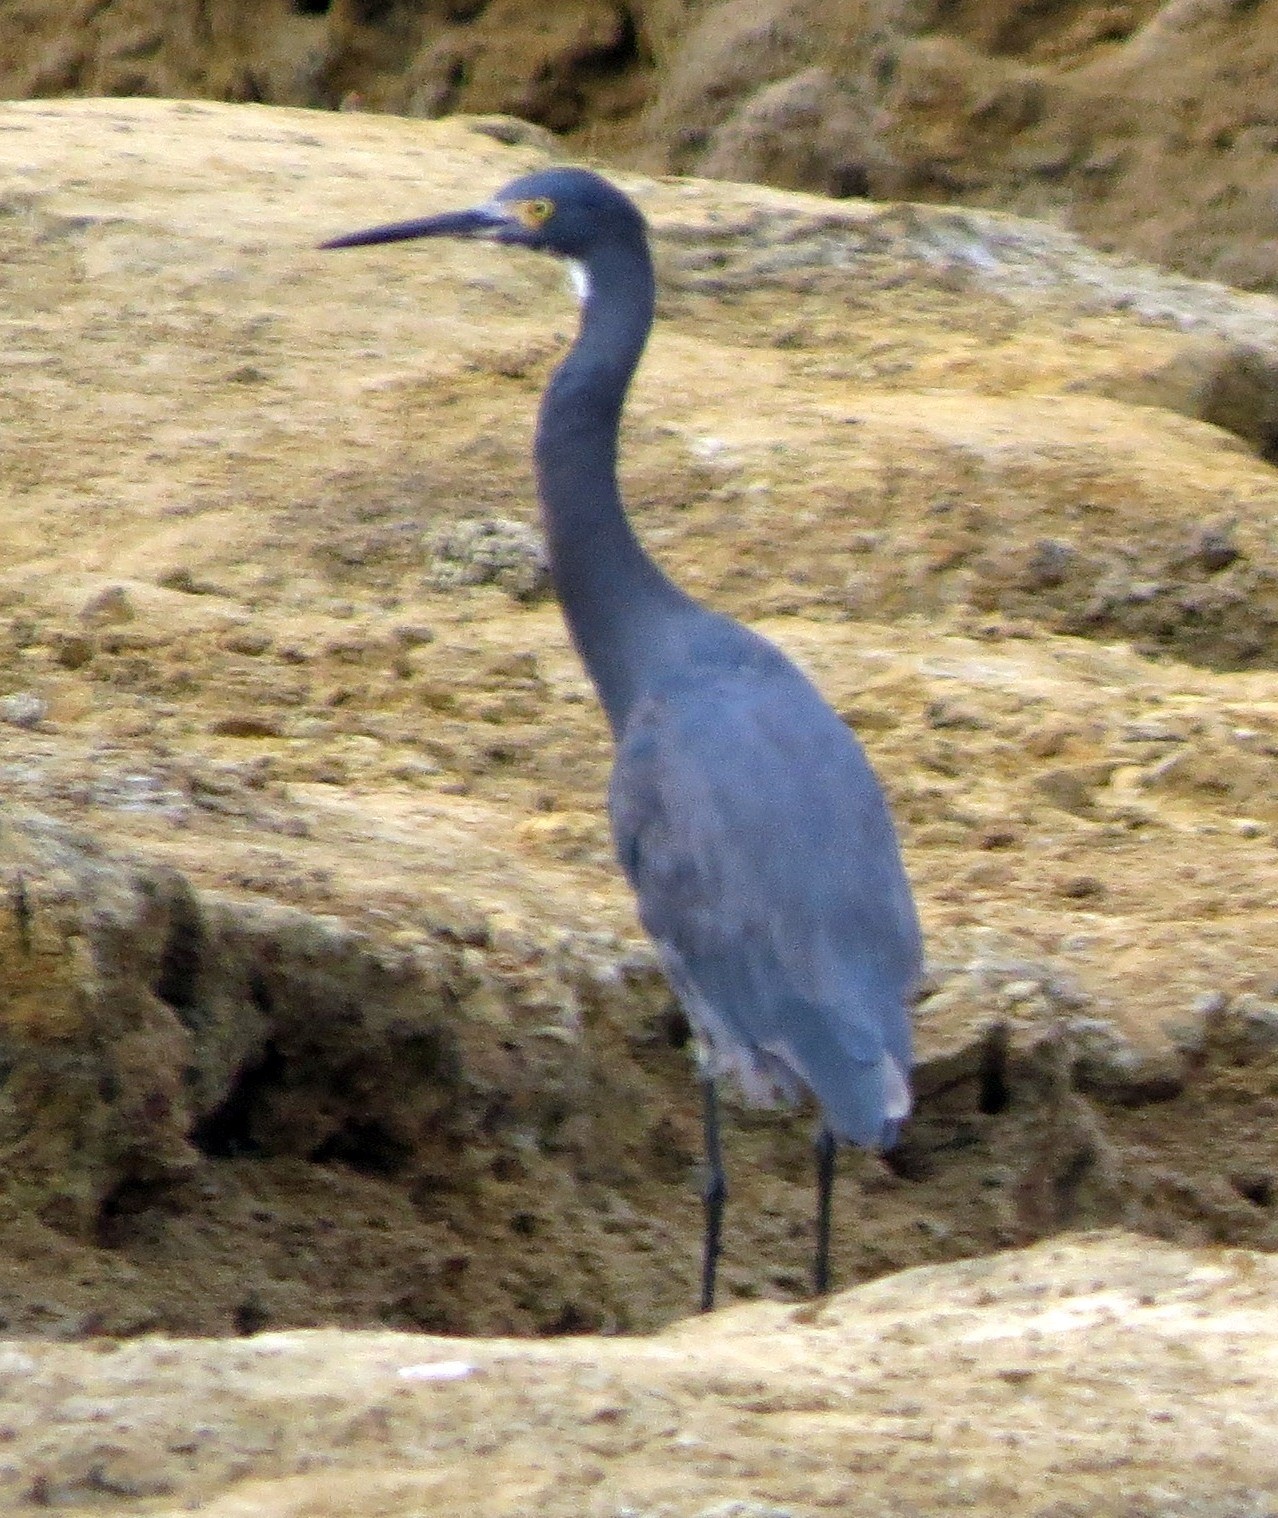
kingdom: Animalia
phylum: Chordata
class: Aves
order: Pelecaniformes
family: Ardeidae
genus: Egretta
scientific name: Egretta dimorpha
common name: Dimorphic egret
